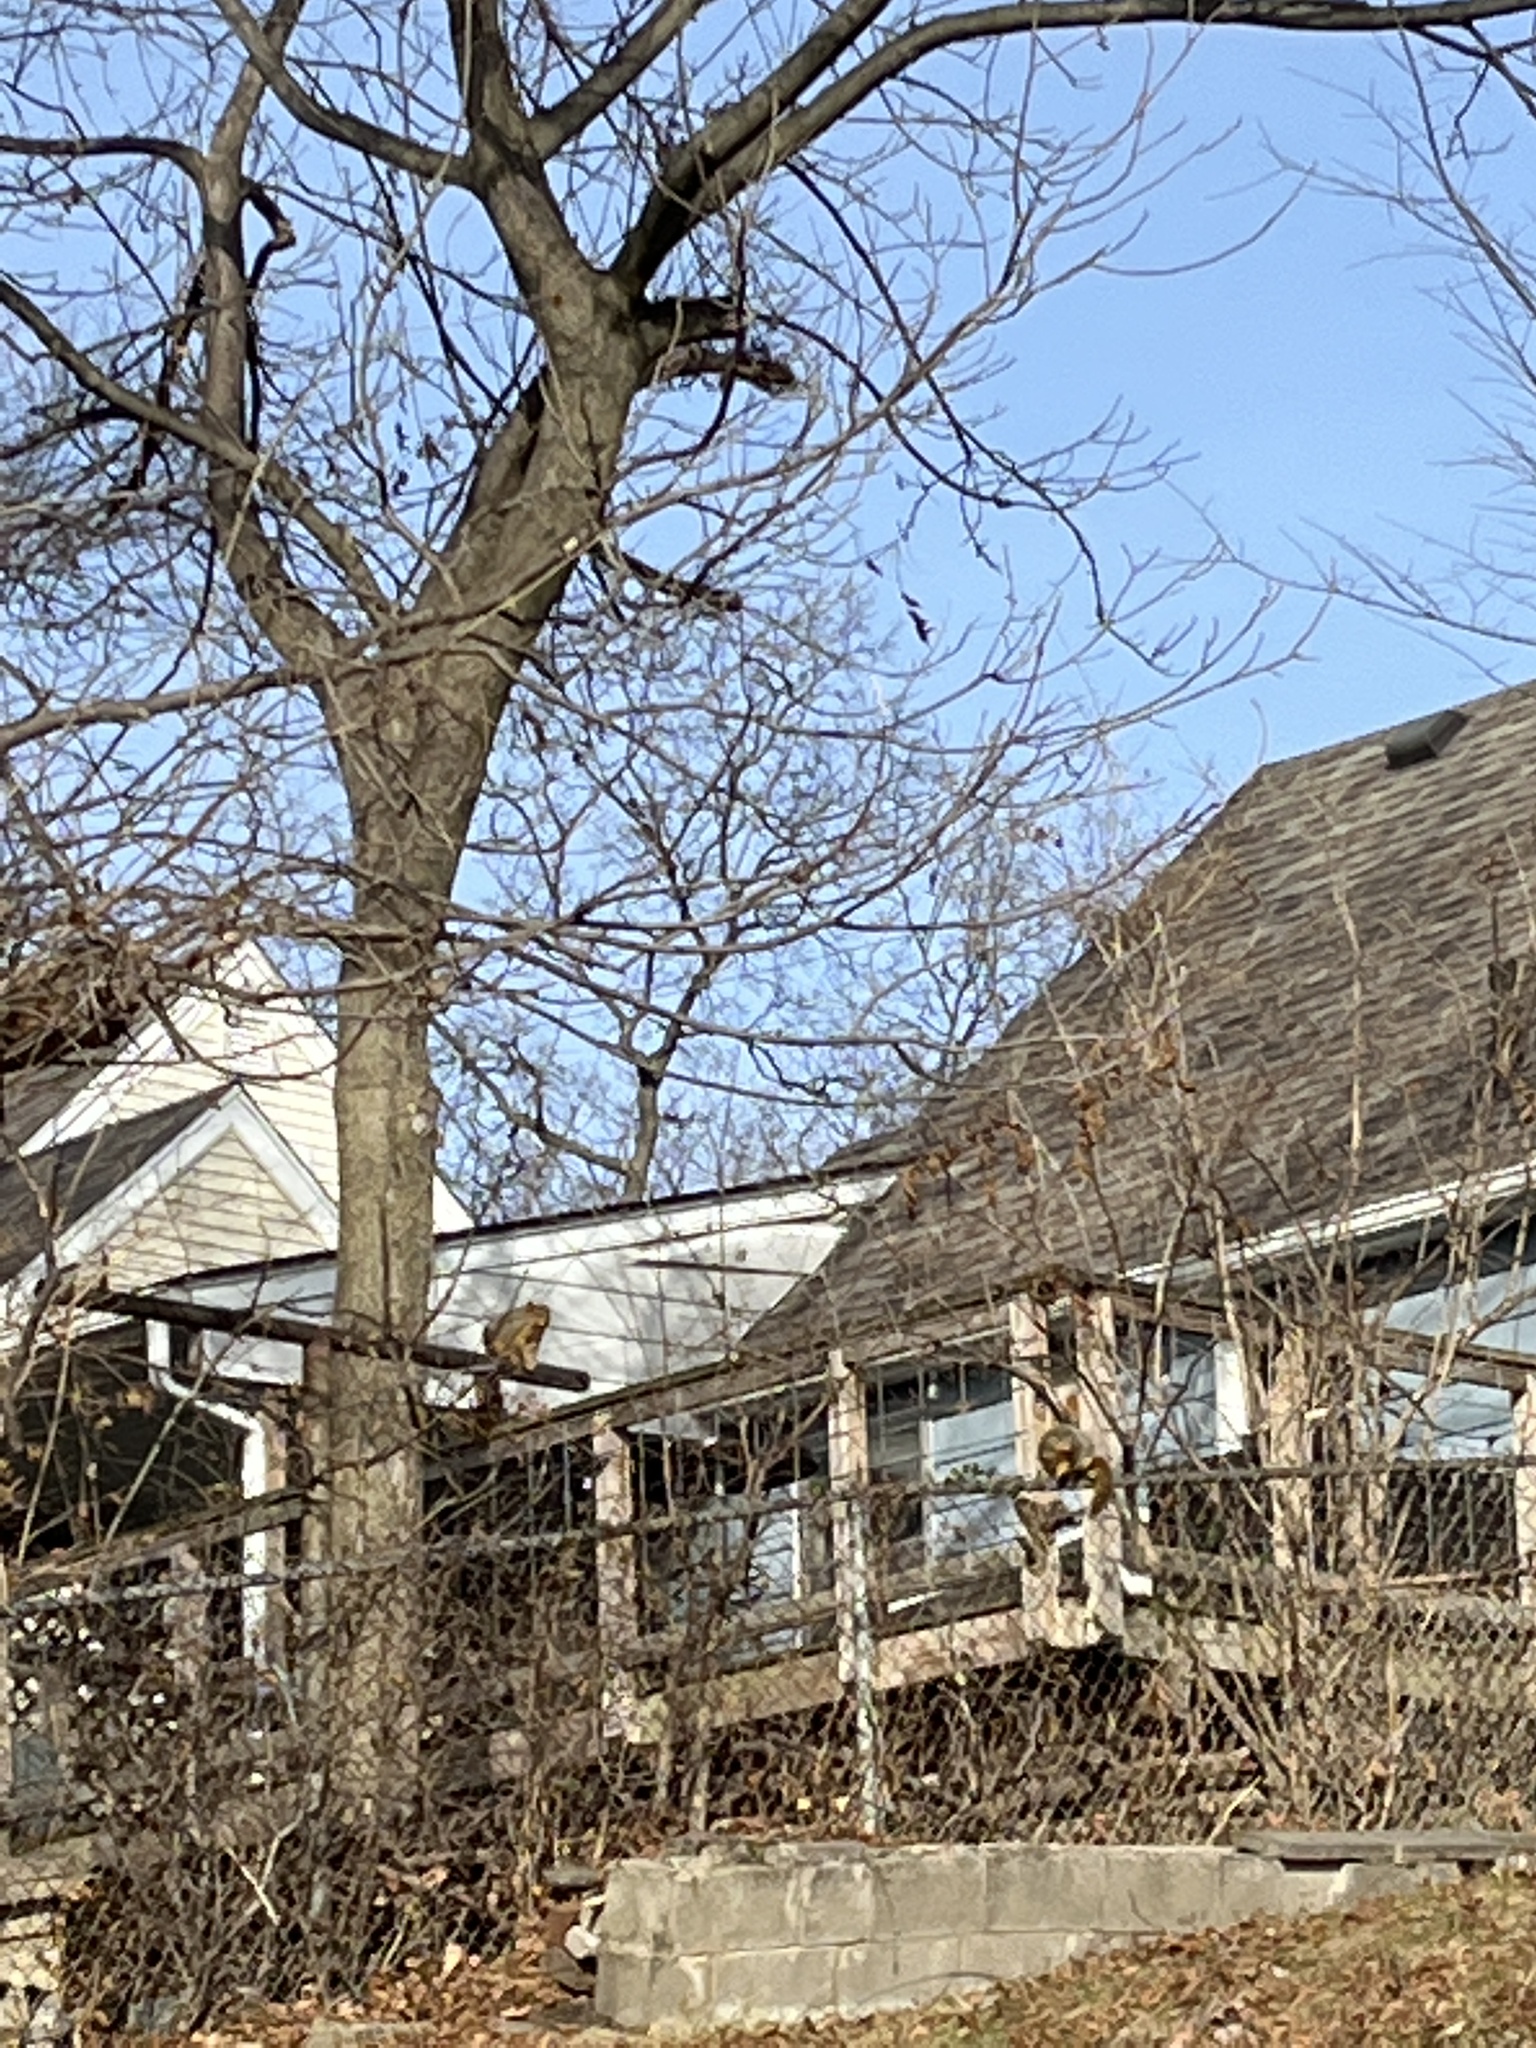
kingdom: Animalia
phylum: Chordata
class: Mammalia
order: Rodentia
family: Sciuridae
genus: Sciurus
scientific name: Sciurus niger
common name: Fox squirrel
